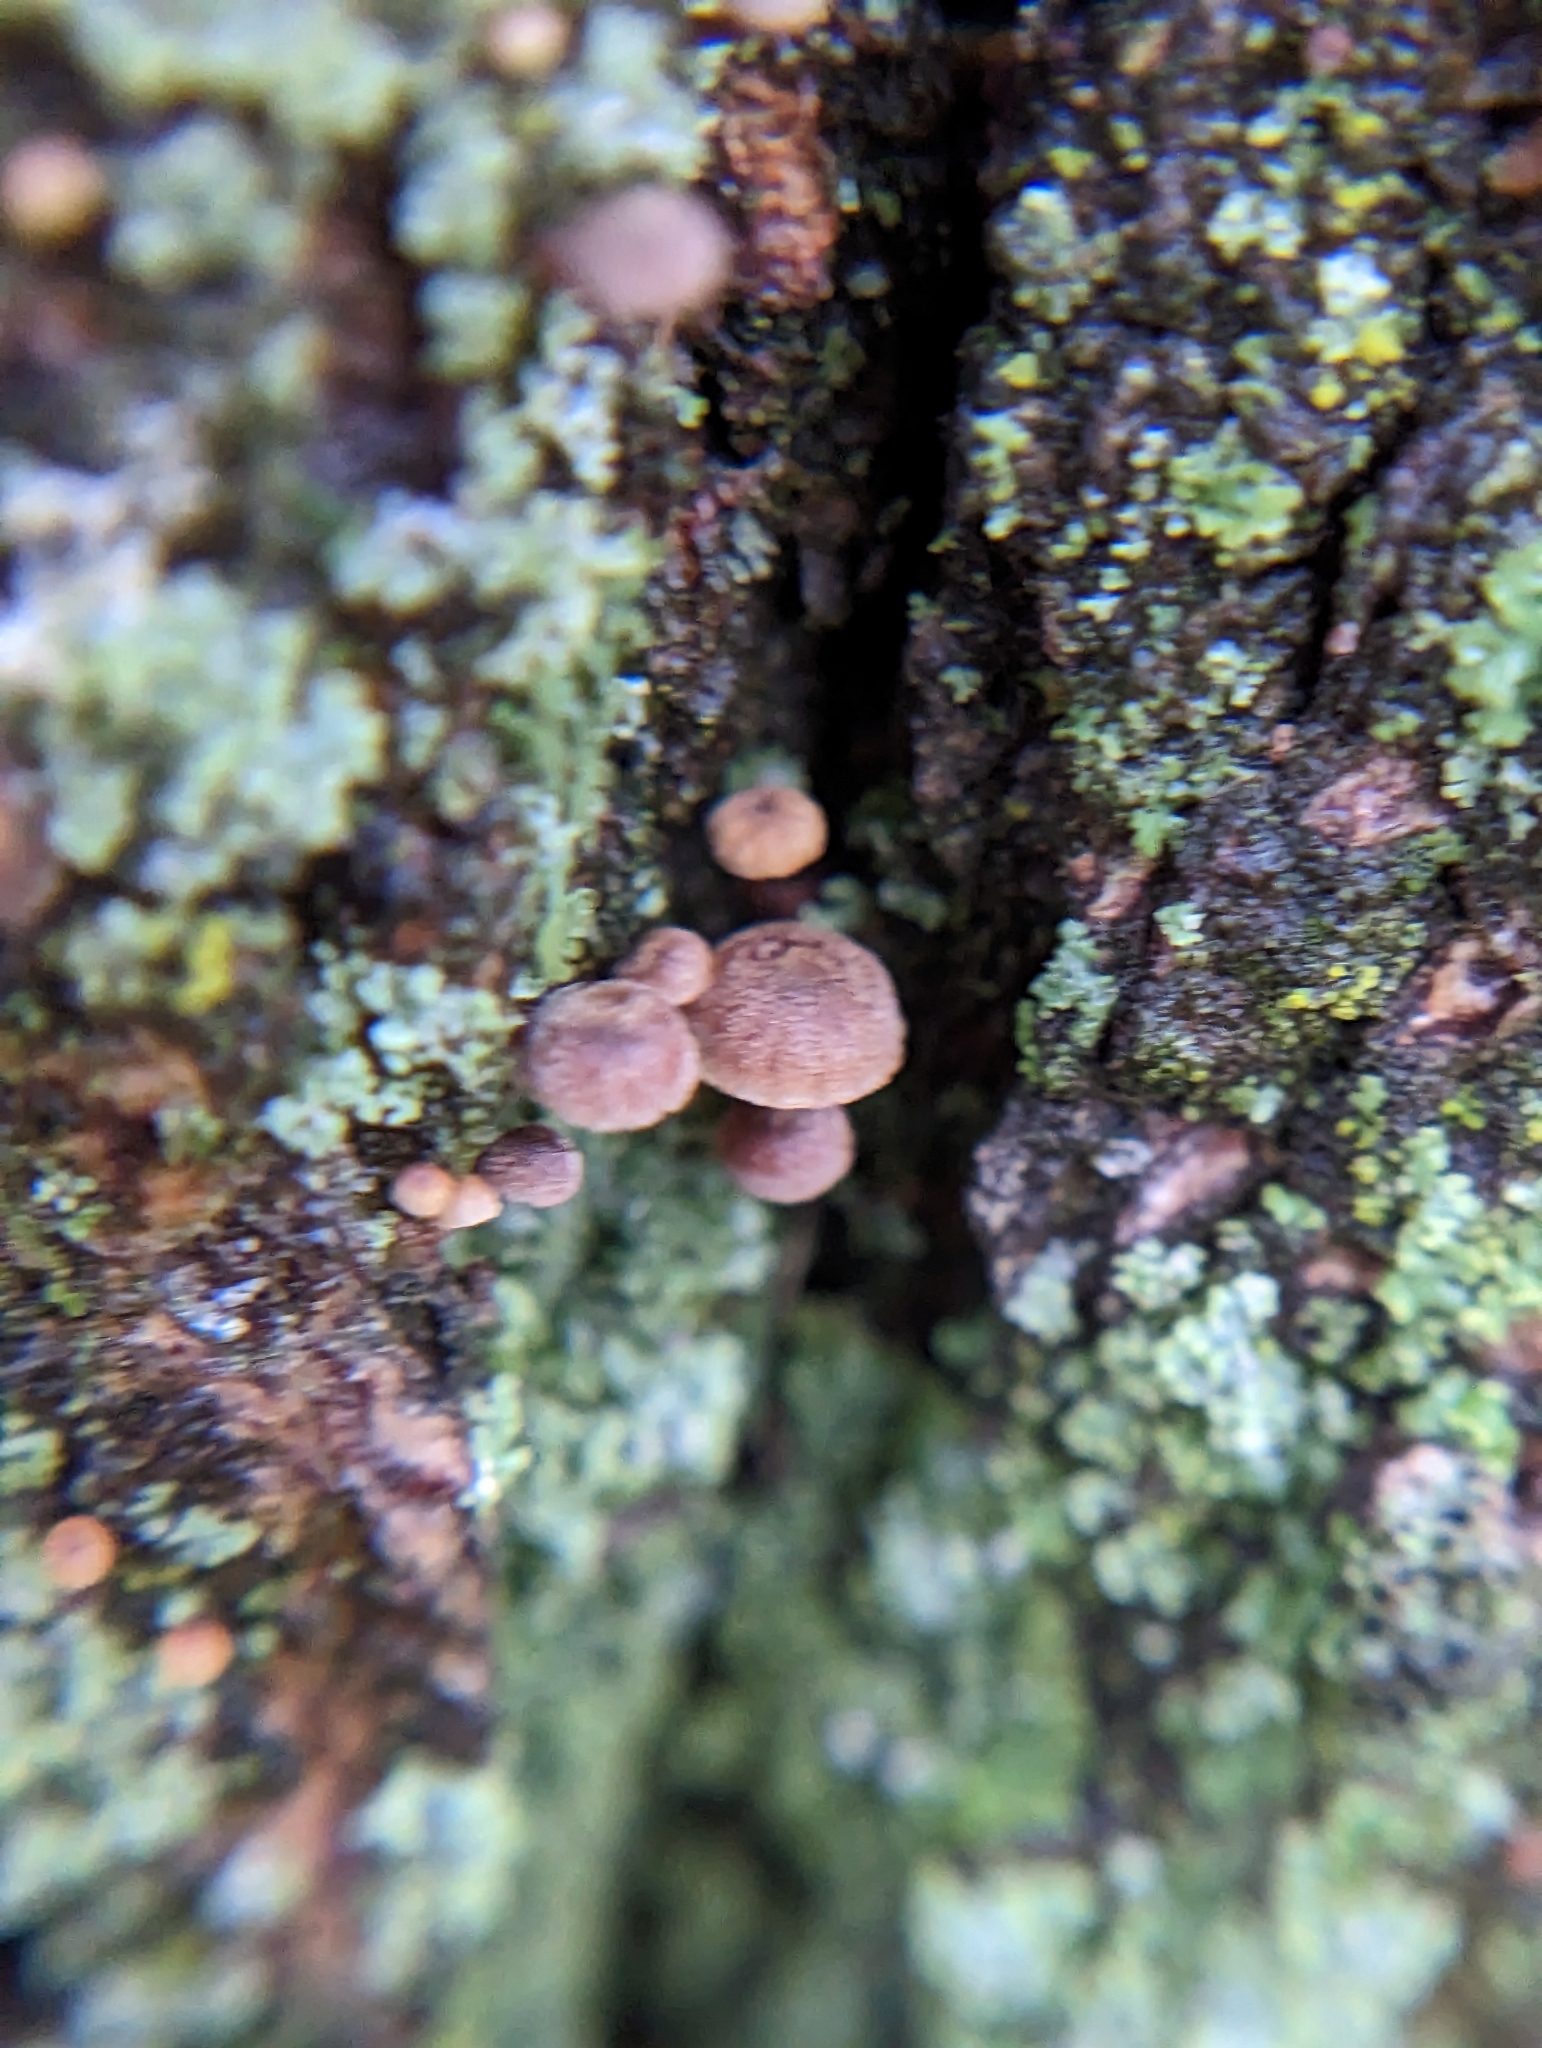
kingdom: Fungi
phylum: Basidiomycota
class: Agaricomycetes
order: Agaricales
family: Mycenaceae
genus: Mycena
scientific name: Mycena corticola
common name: Bark mycena
